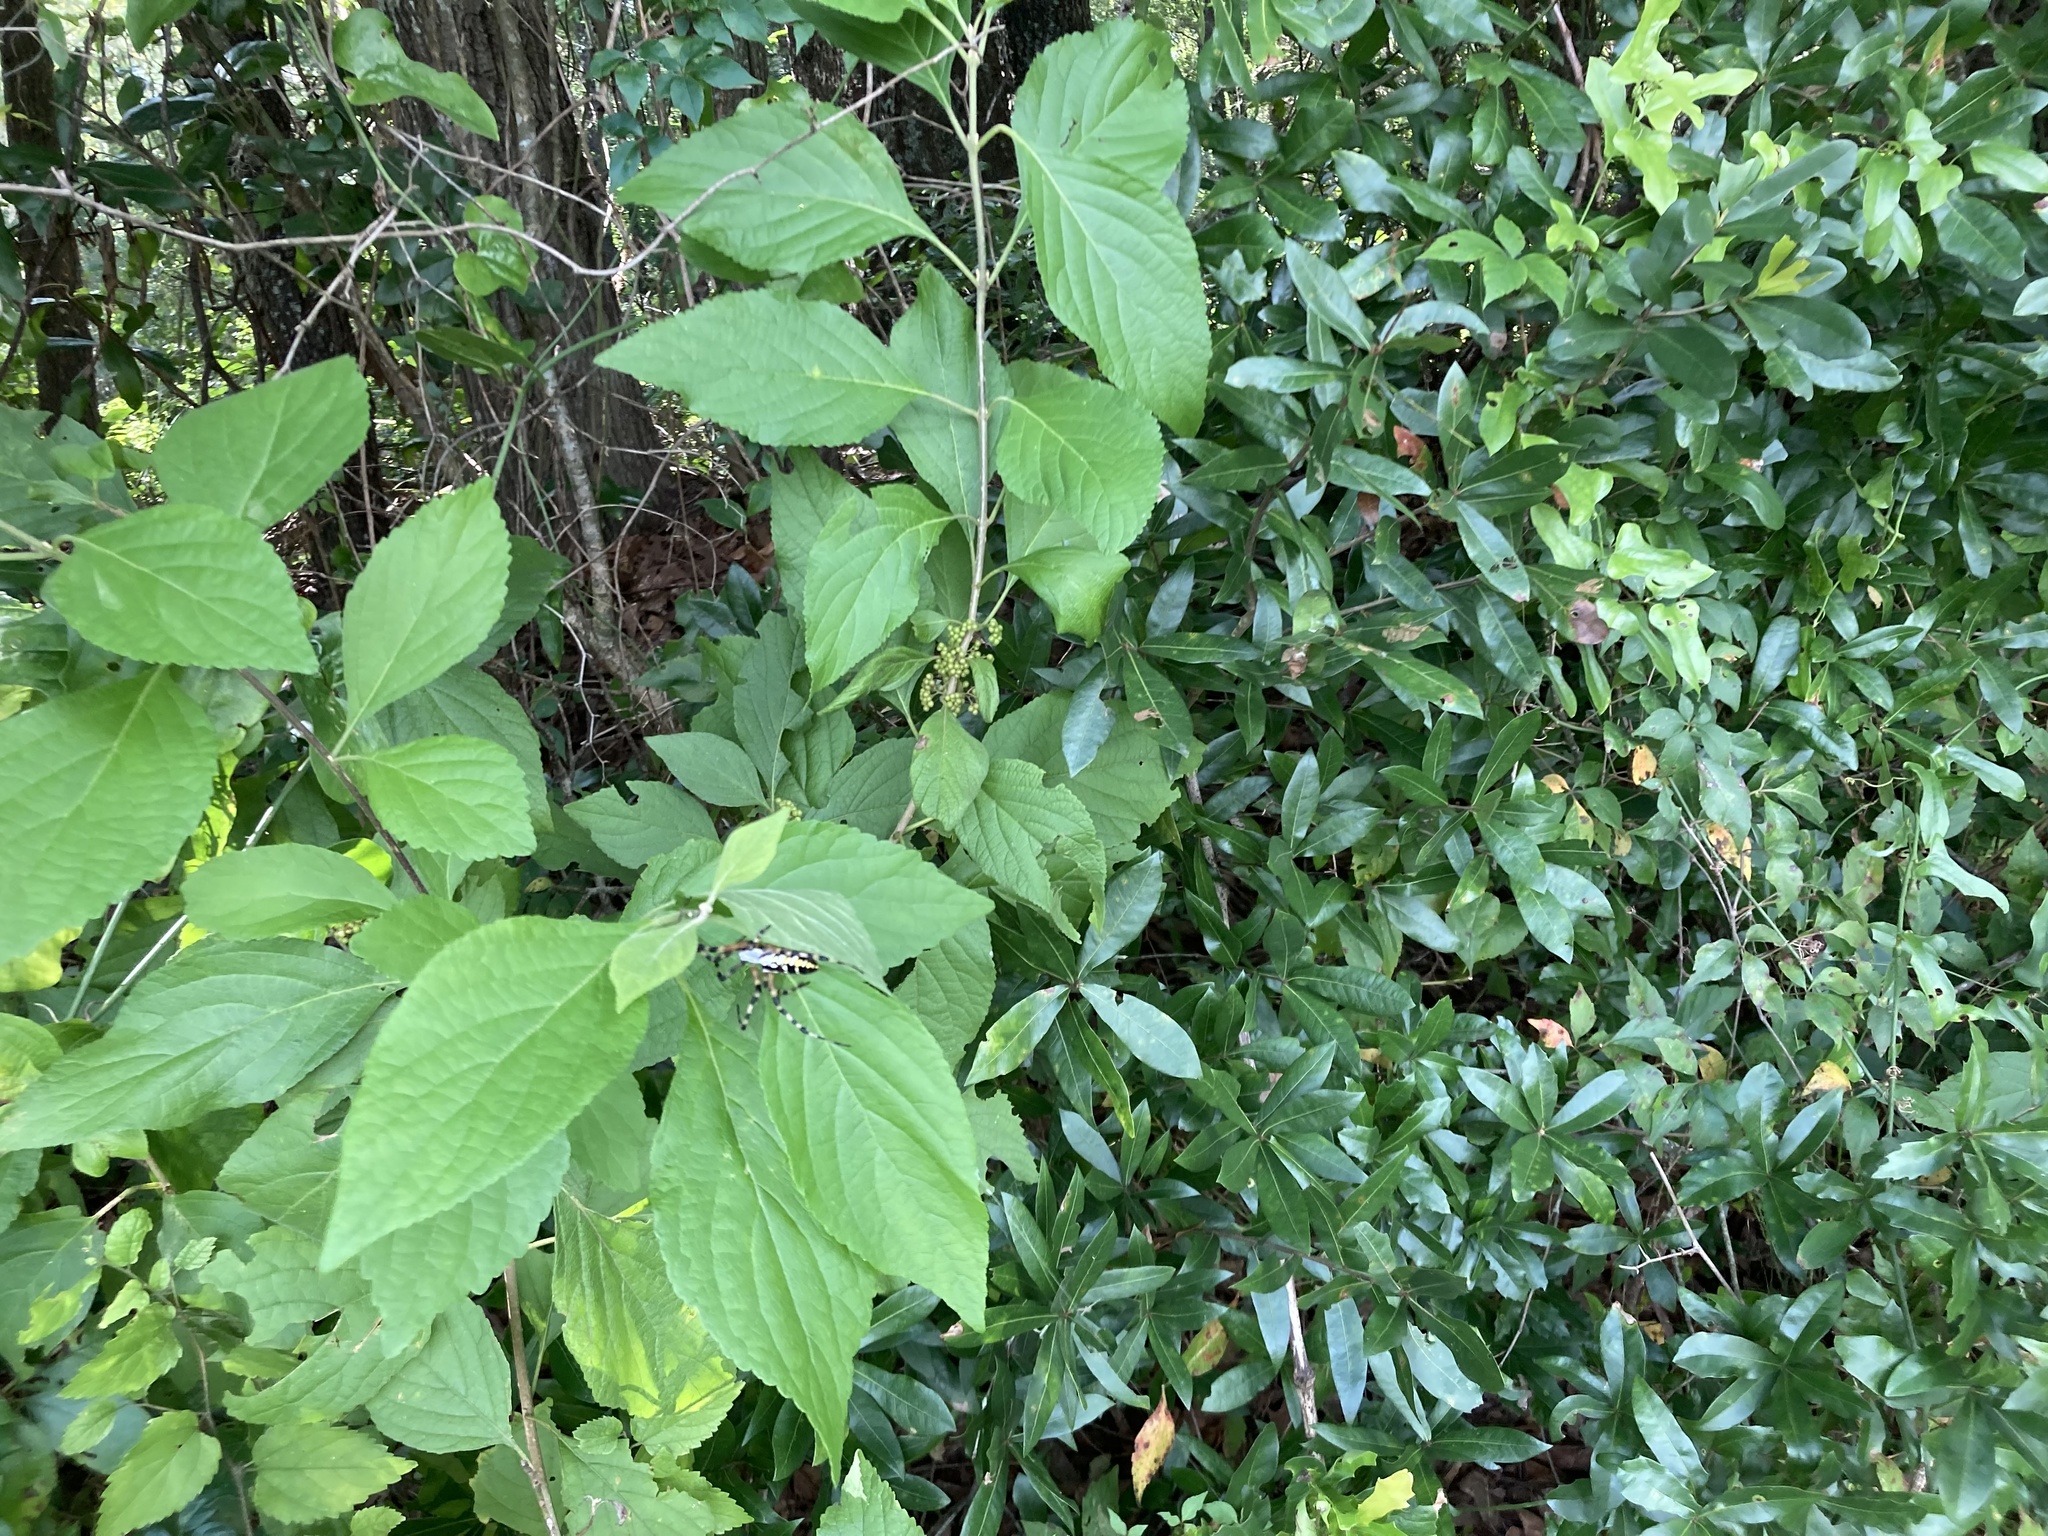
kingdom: Plantae
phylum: Tracheophyta
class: Magnoliopsida
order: Lamiales
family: Lamiaceae
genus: Callicarpa
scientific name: Callicarpa americana
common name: American beautyberry
